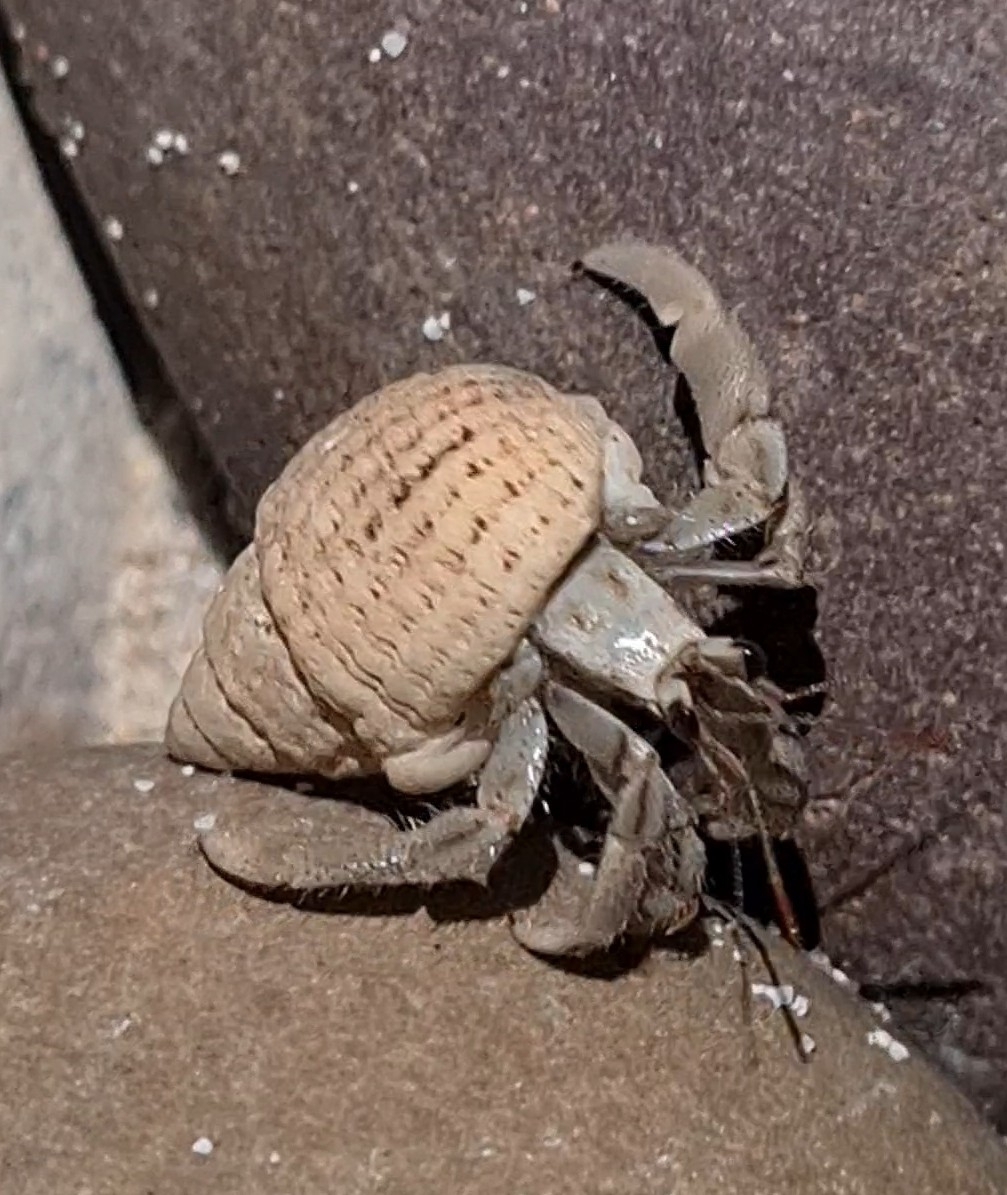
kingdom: Animalia
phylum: Arthropoda
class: Malacostraca
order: Decapoda
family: Coenobitidae
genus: Coenobita
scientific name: Coenobita rugosus
